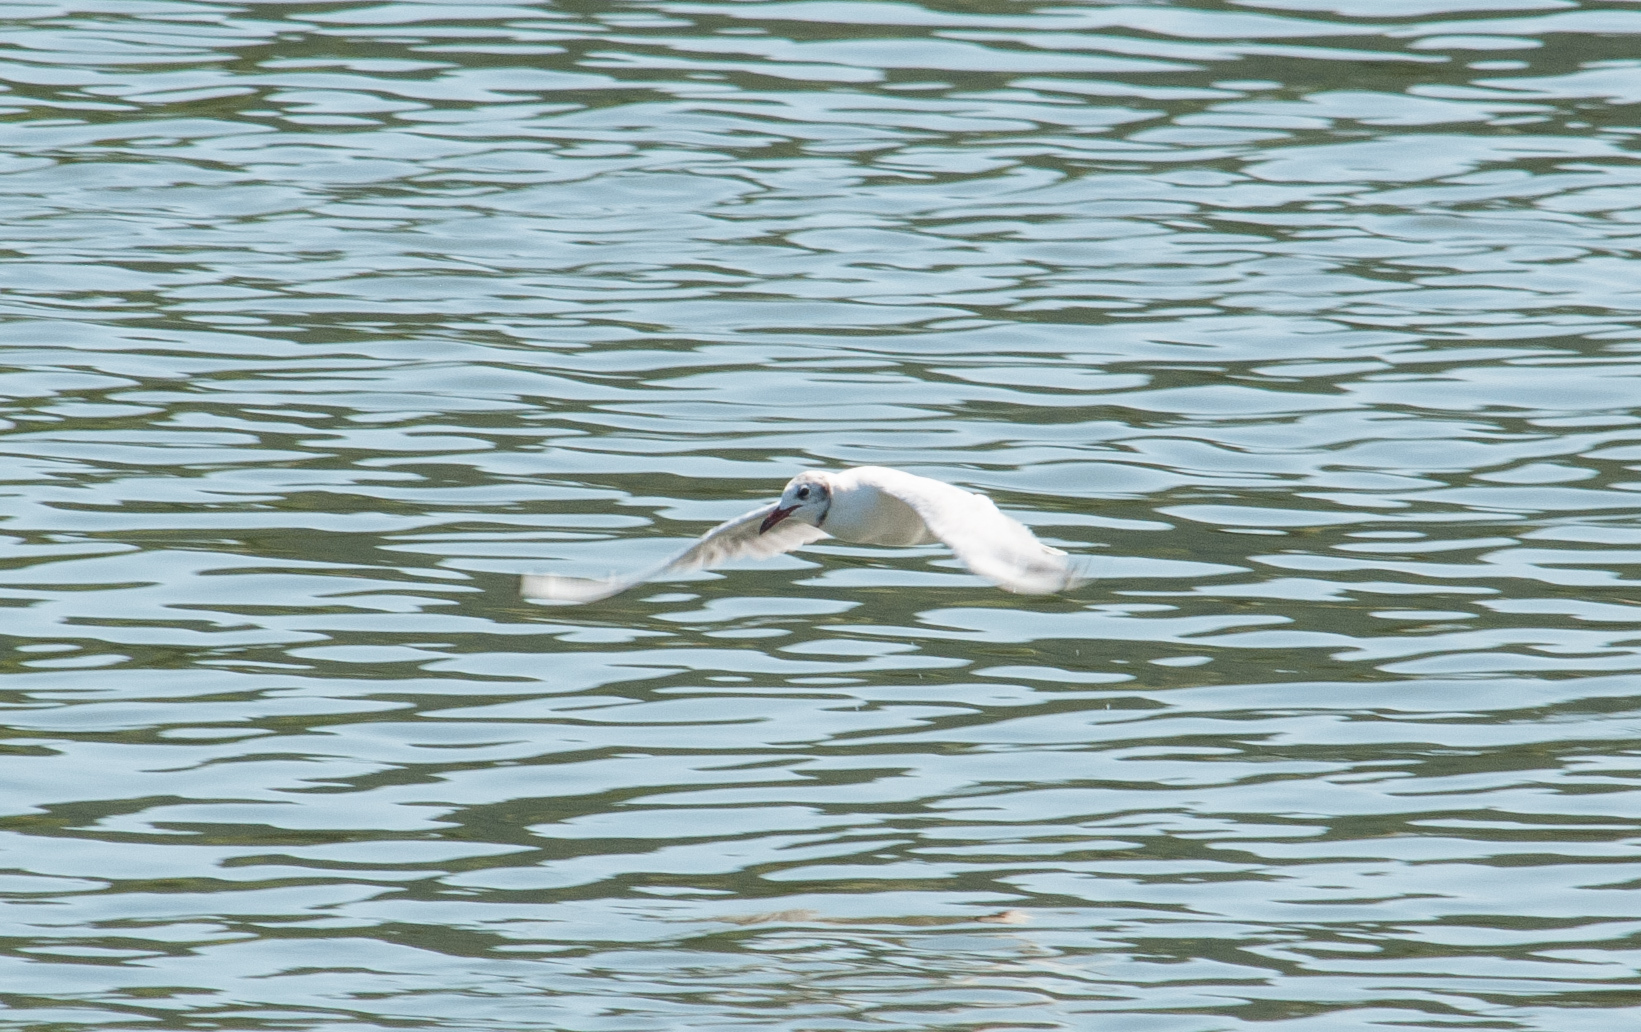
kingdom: Animalia
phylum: Chordata
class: Aves
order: Charadriiformes
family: Laridae
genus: Chroicocephalus
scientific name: Chroicocephalus ridibundus
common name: Black-headed gull
